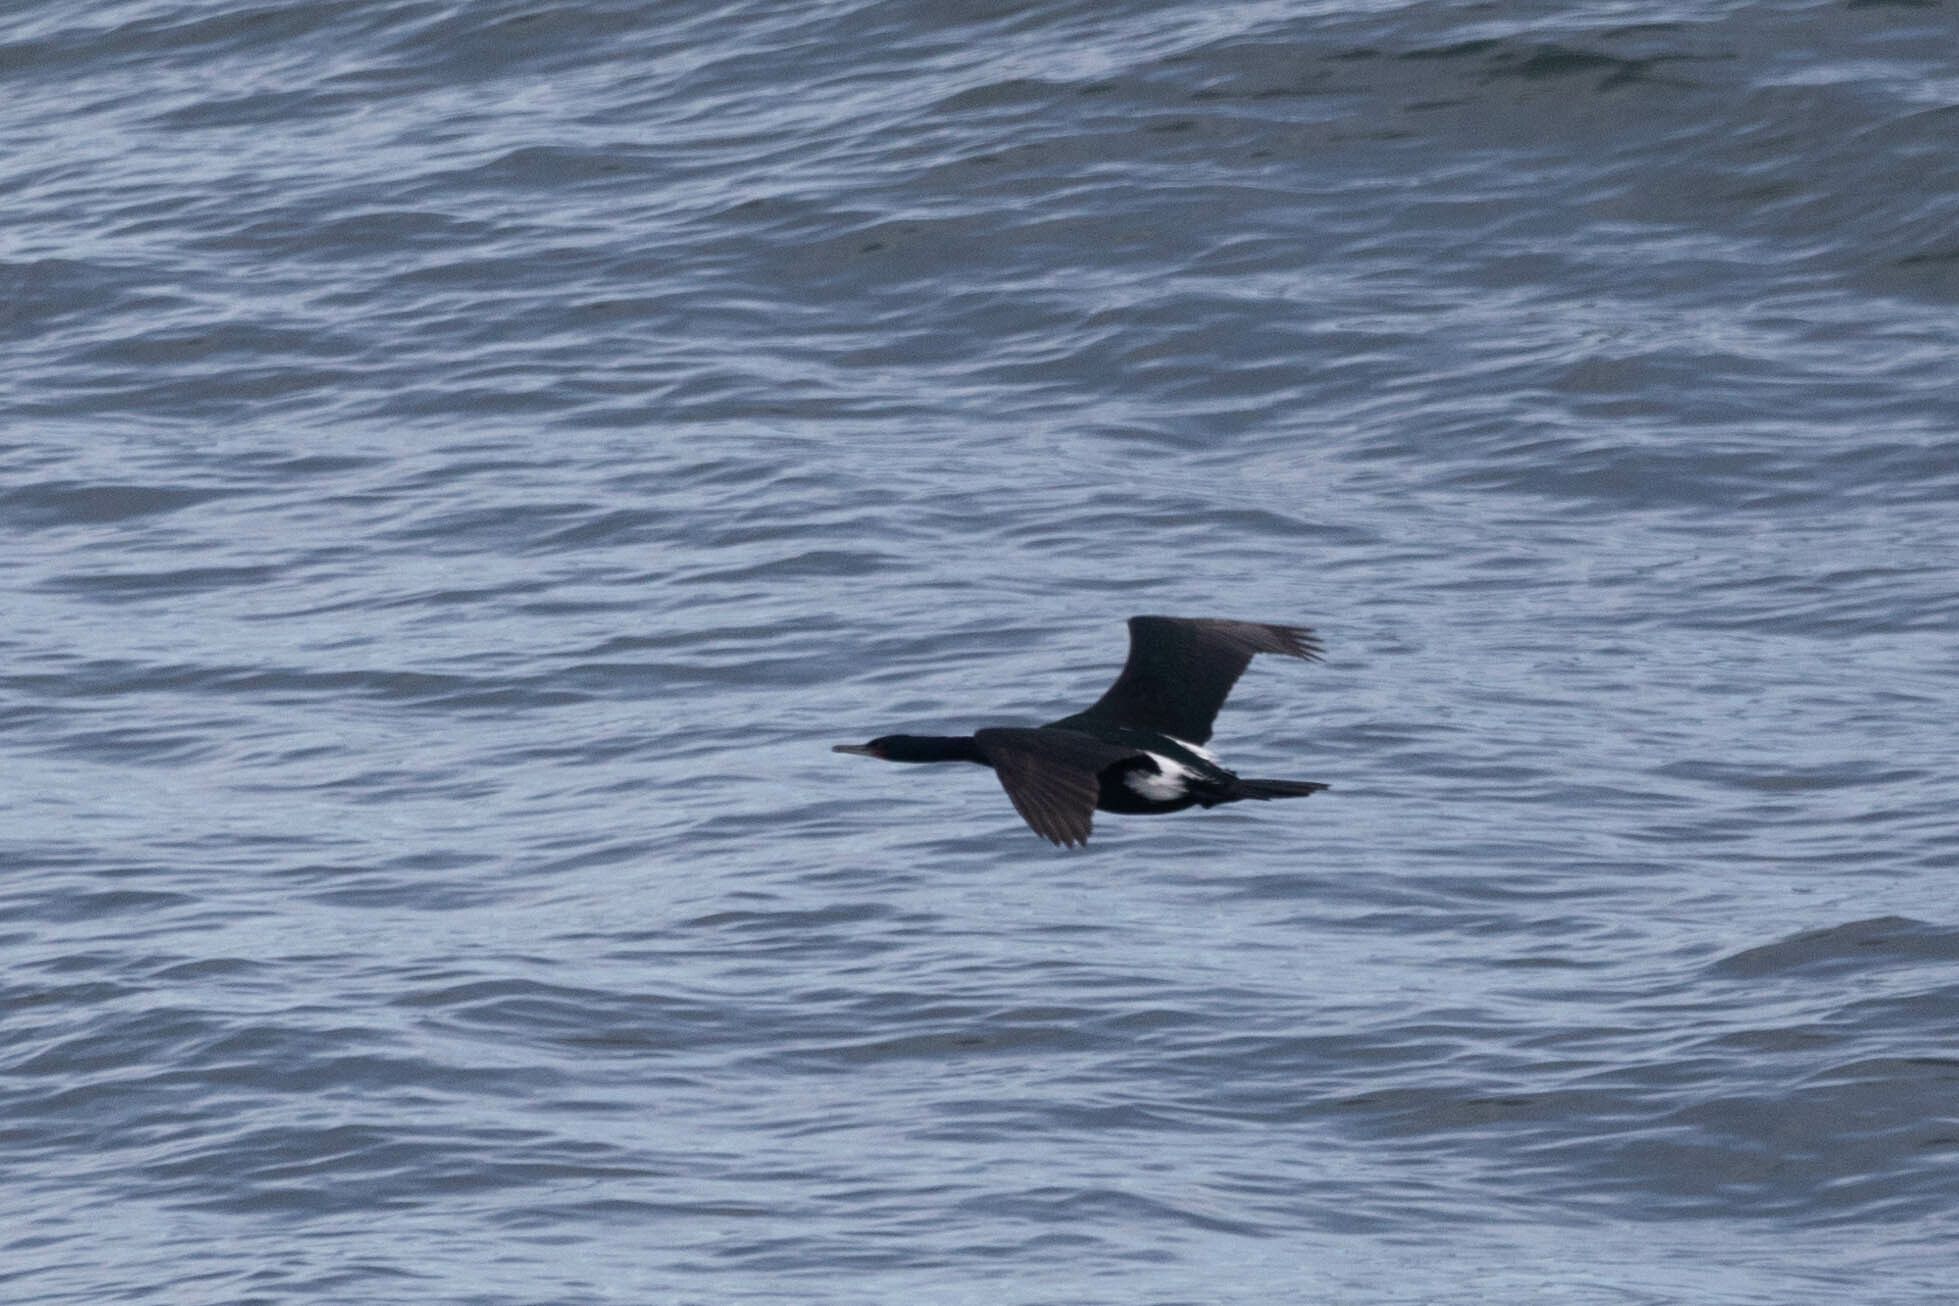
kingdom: Animalia
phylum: Chordata
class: Aves
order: Suliformes
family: Phalacrocoracidae
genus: Phalacrocorax
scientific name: Phalacrocorax pelagicus
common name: Pelagic cormorant
